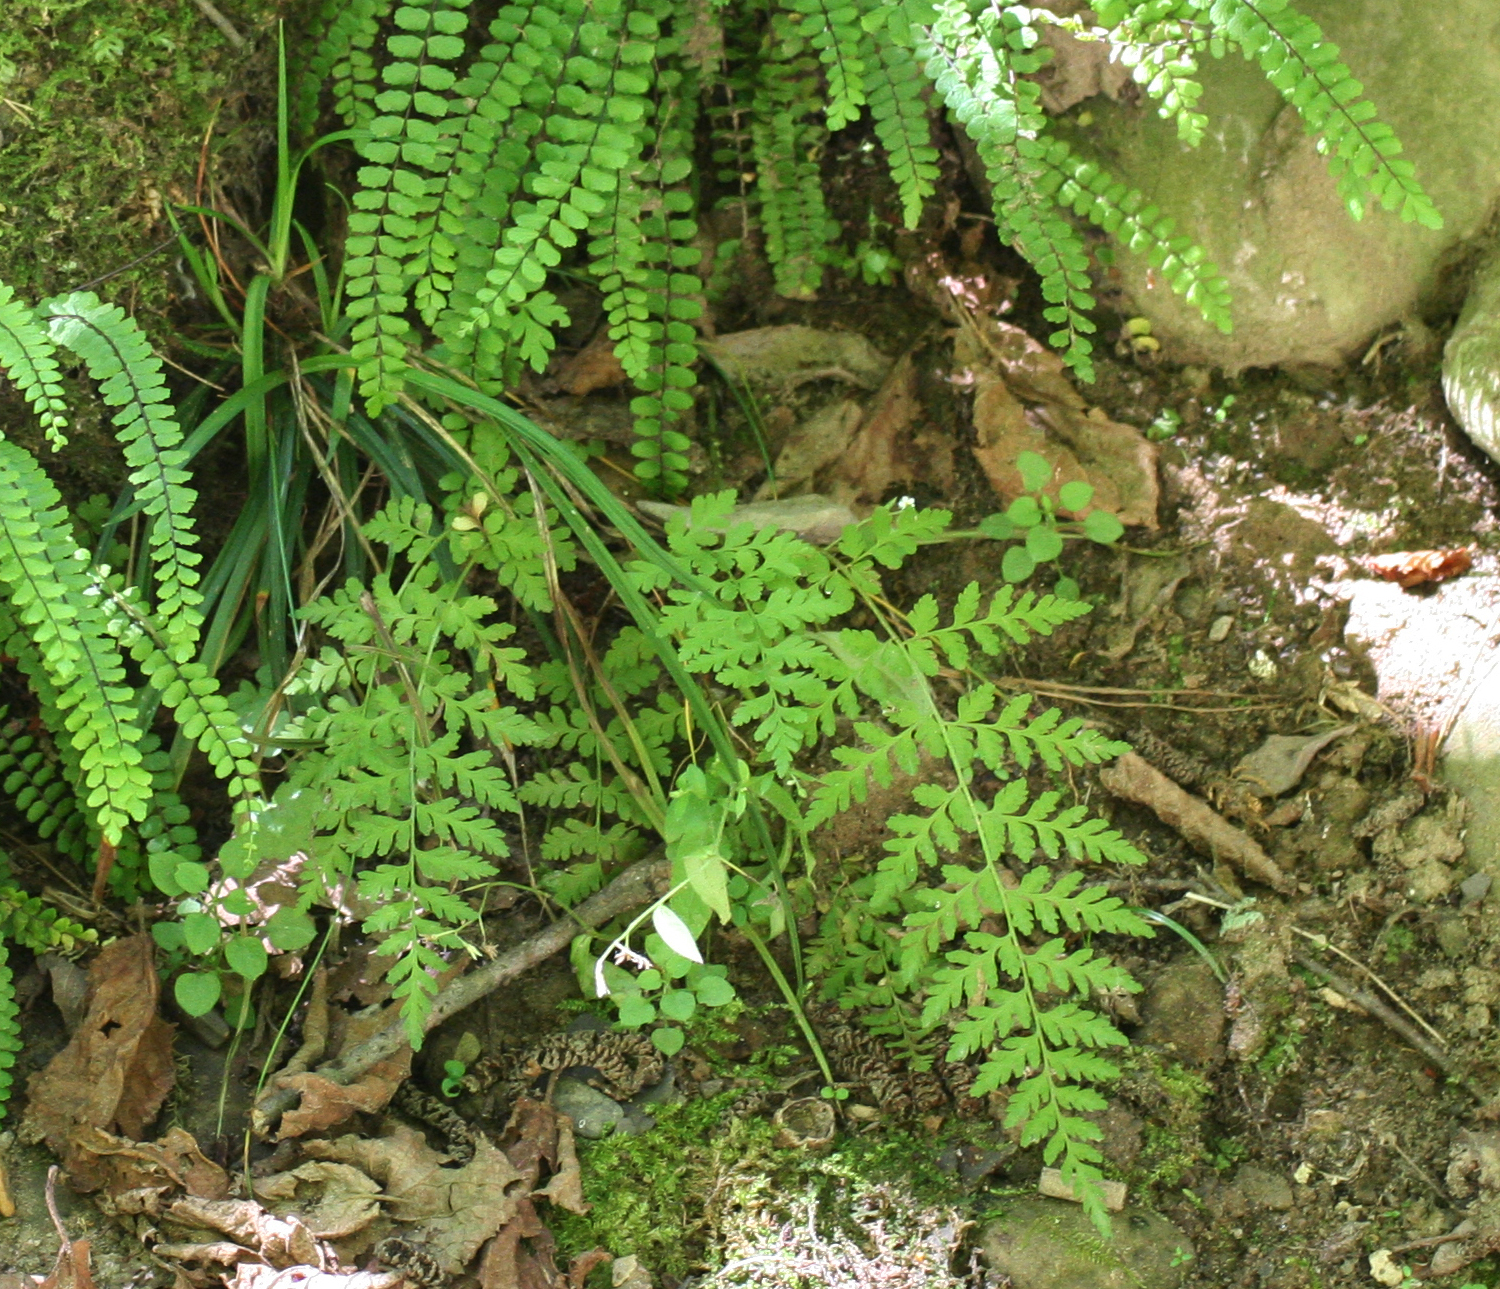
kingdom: Plantae
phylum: Tracheophyta
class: Polypodiopsida
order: Polypodiales
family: Cystopteridaceae
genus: Cystopteris
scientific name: Cystopteris fragilis
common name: Brittle bladder fern
